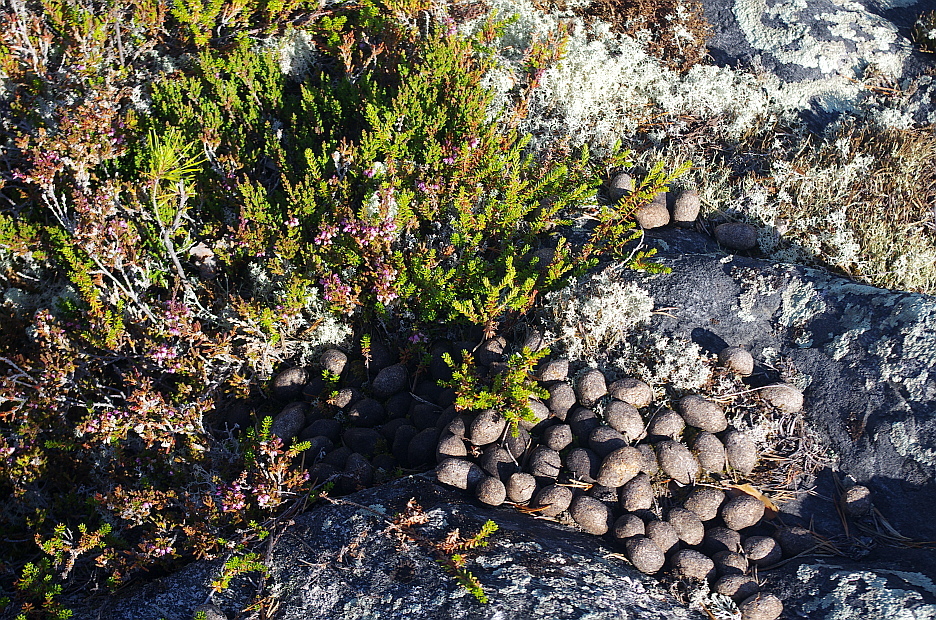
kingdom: Plantae
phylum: Tracheophyta
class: Magnoliopsida
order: Ericales
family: Ericaceae
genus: Calluna
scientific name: Calluna vulgaris
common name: Heather
